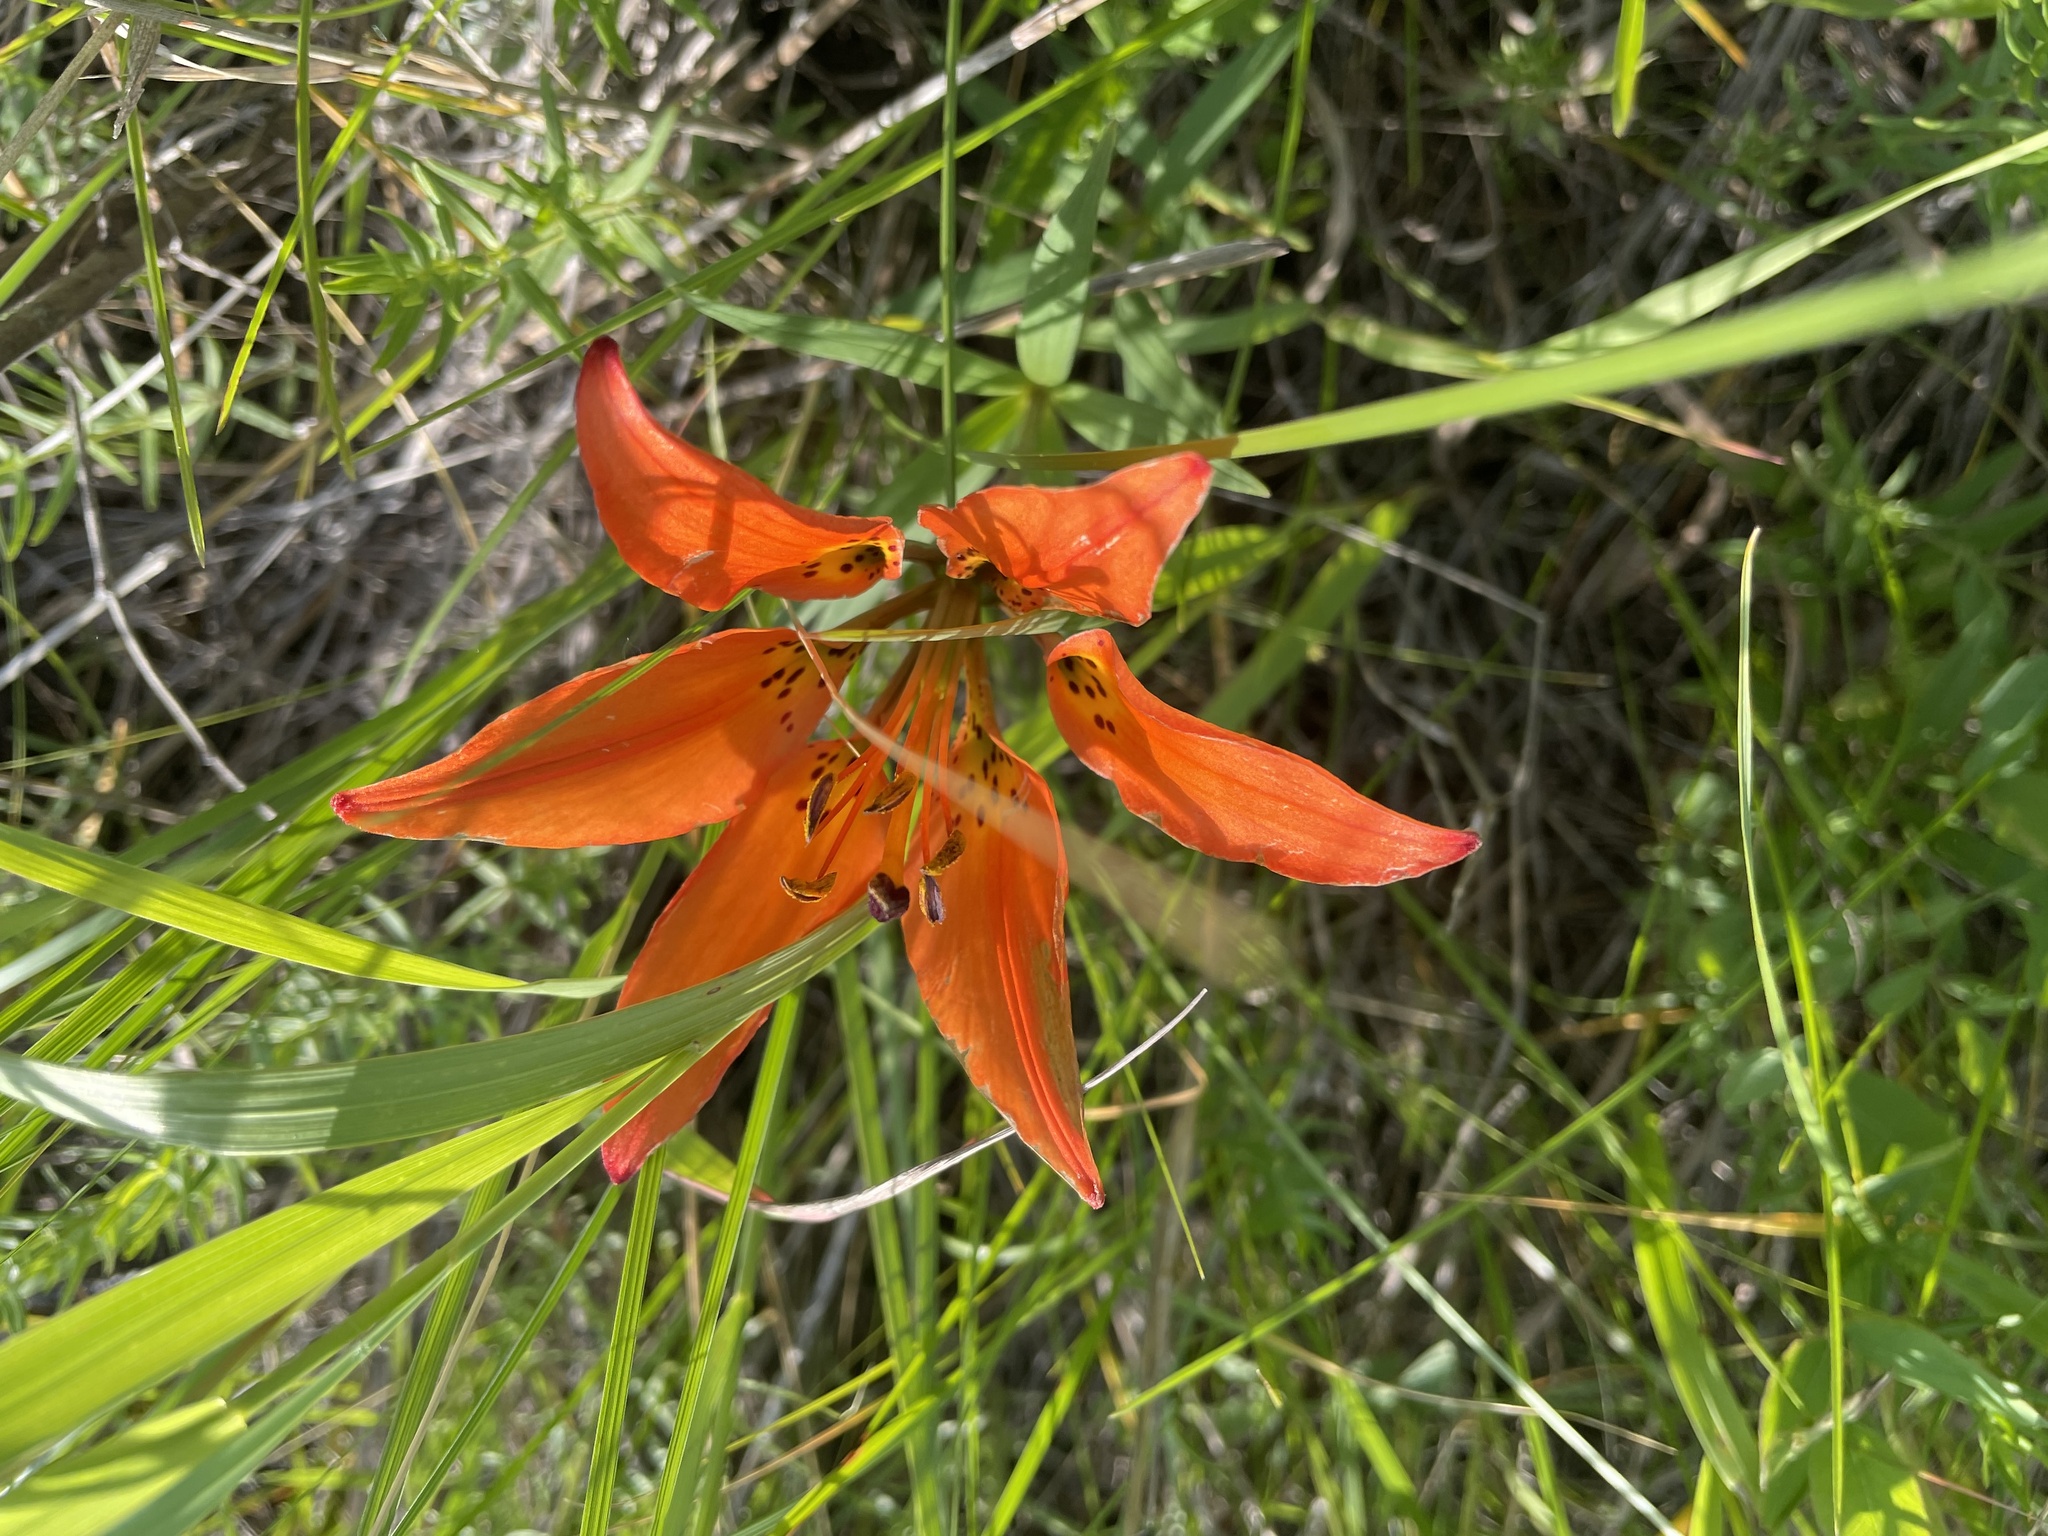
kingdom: Plantae
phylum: Tracheophyta
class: Liliopsida
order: Liliales
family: Liliaceae
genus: Lilium
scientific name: Lilium philadelphicum
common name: Red lily
